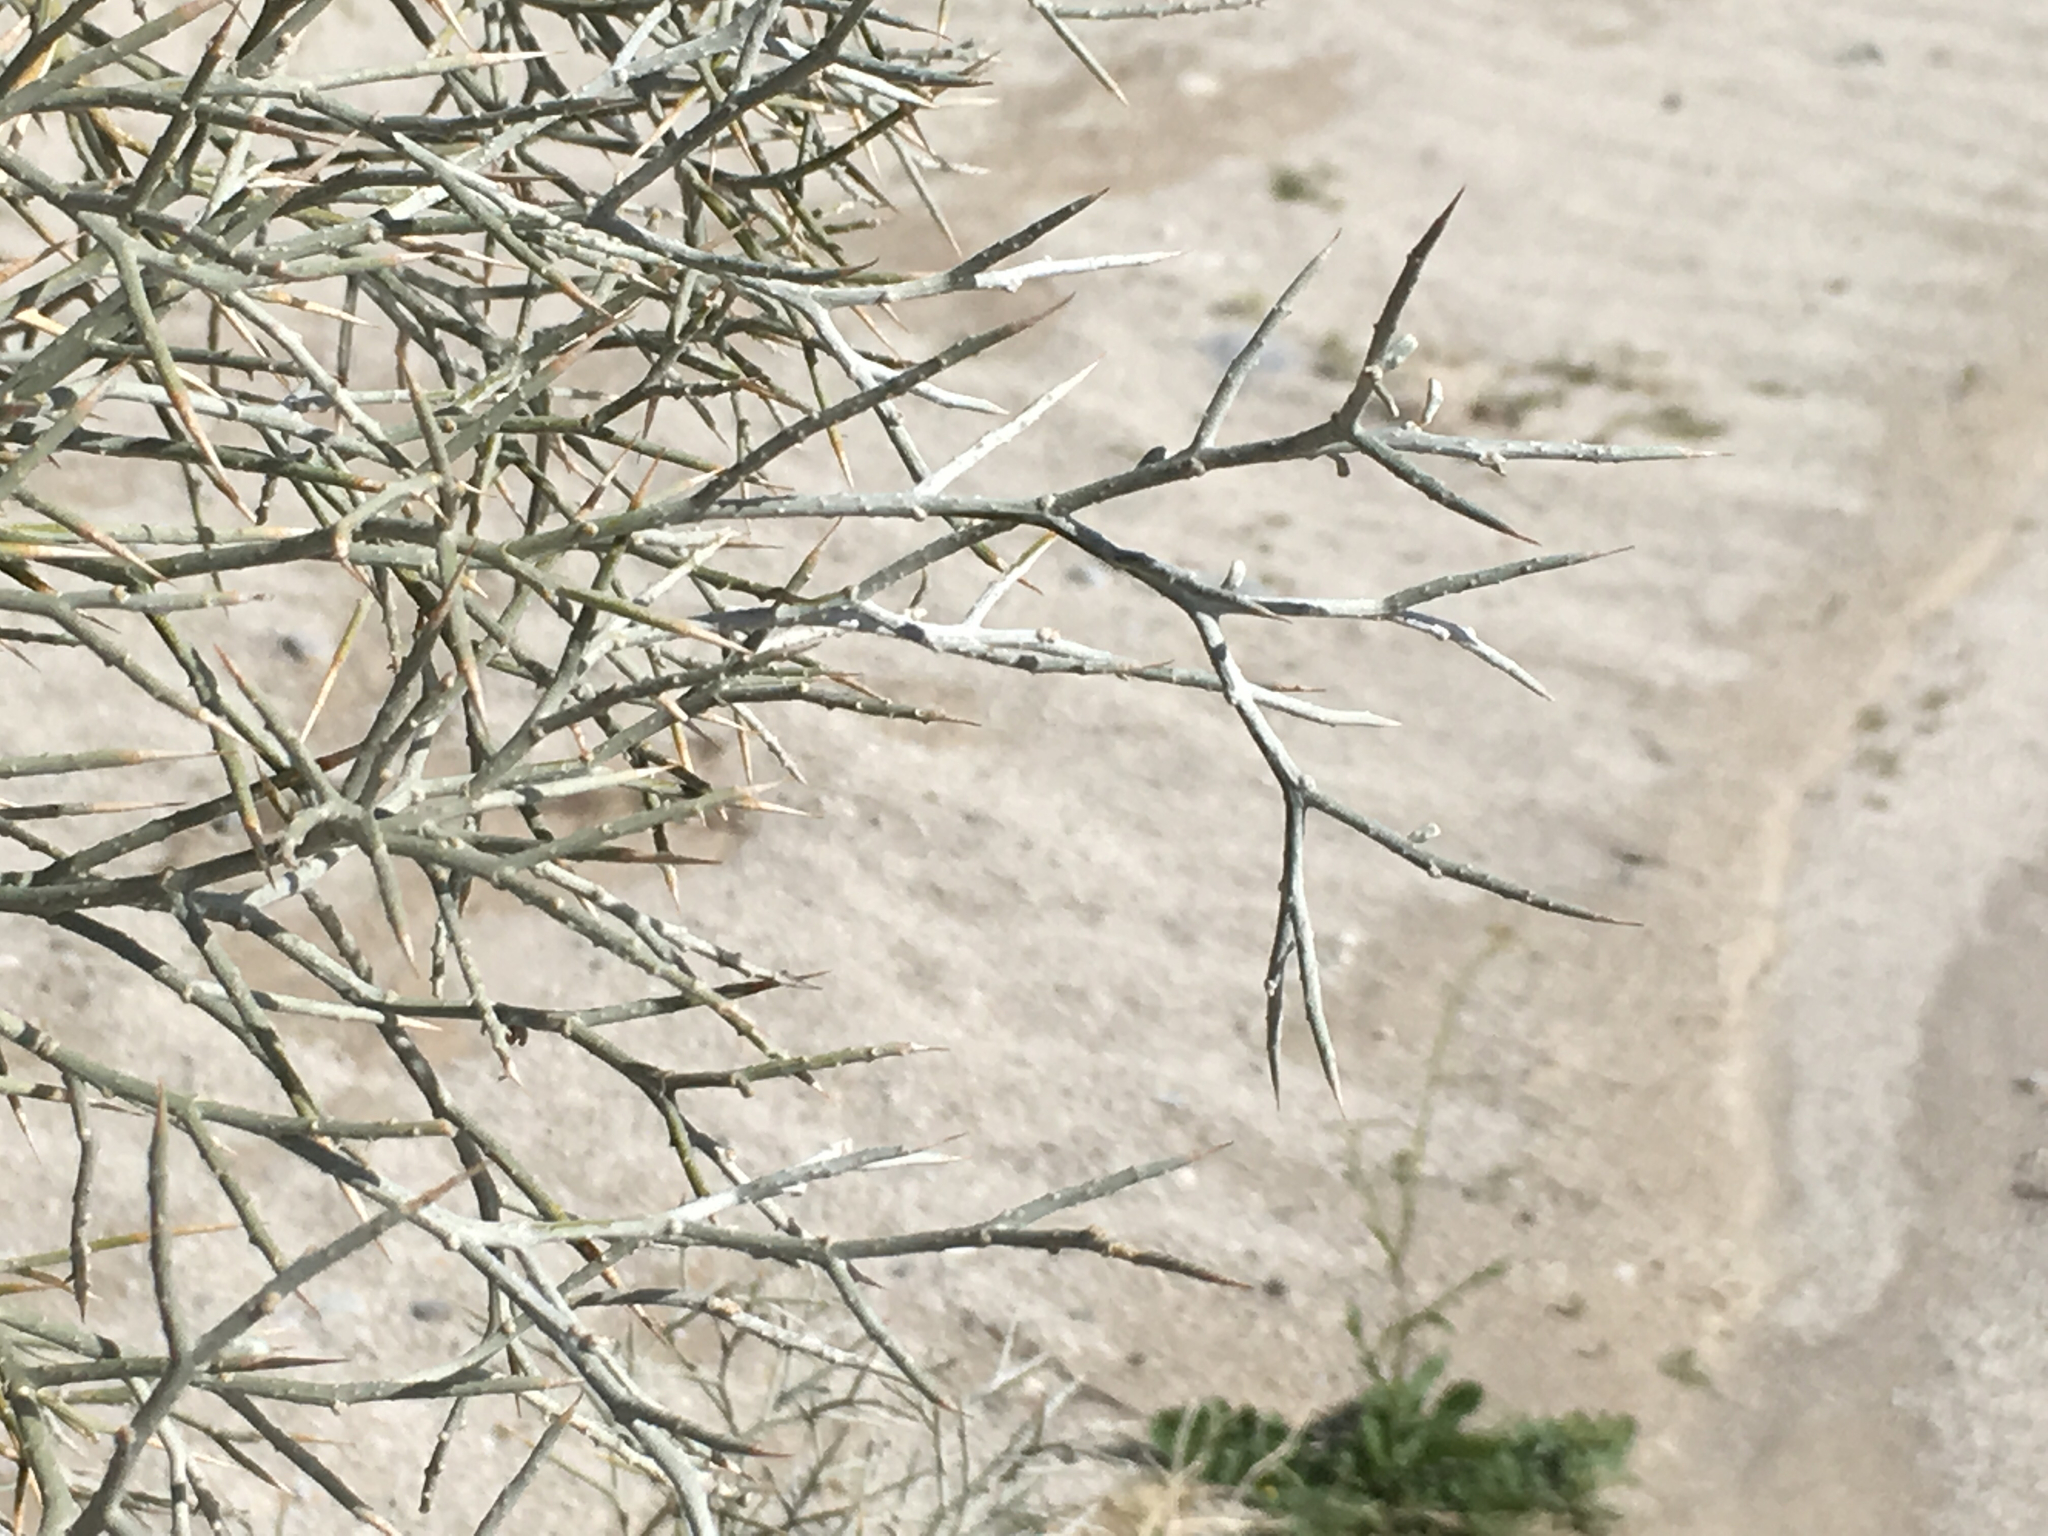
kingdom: Plantae
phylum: Tracheophyta
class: Magnoliopsida
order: Fabales
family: Fabaceae
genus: Psorothamnus
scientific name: Psorothamnus spinosus
